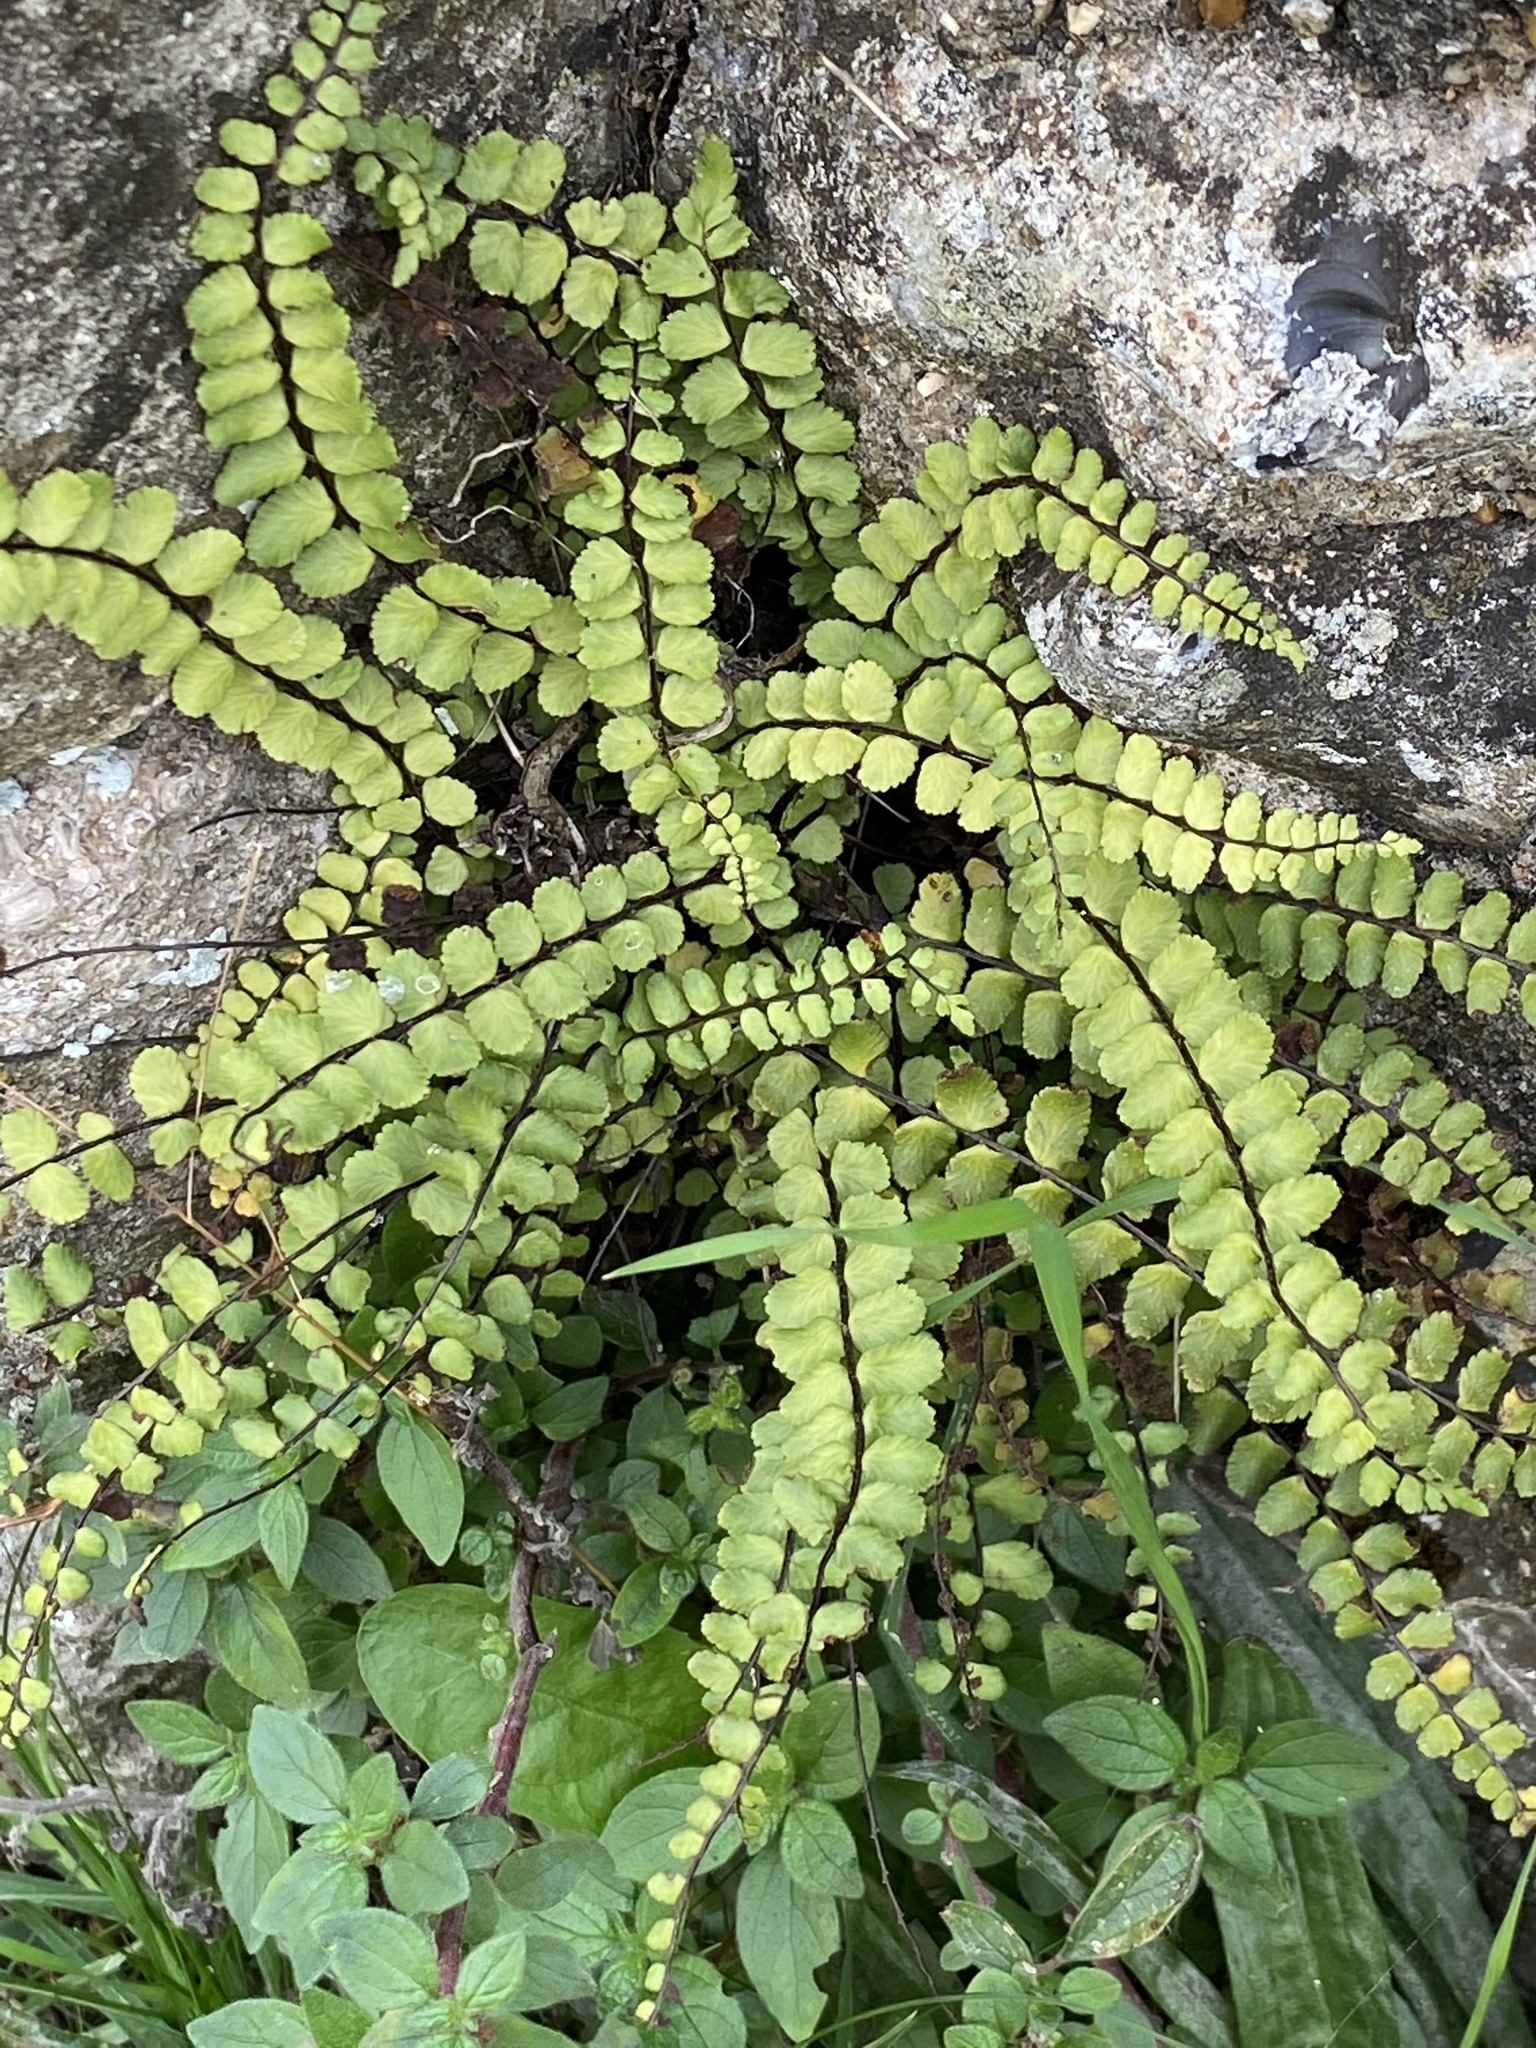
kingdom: Plantae
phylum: Tracheophyta
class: Polypodiopsida
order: Polypodiales
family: Aspleniaceae
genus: Asplenium
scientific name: Asplenium trichomanes
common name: Maidenhair spleenwort
